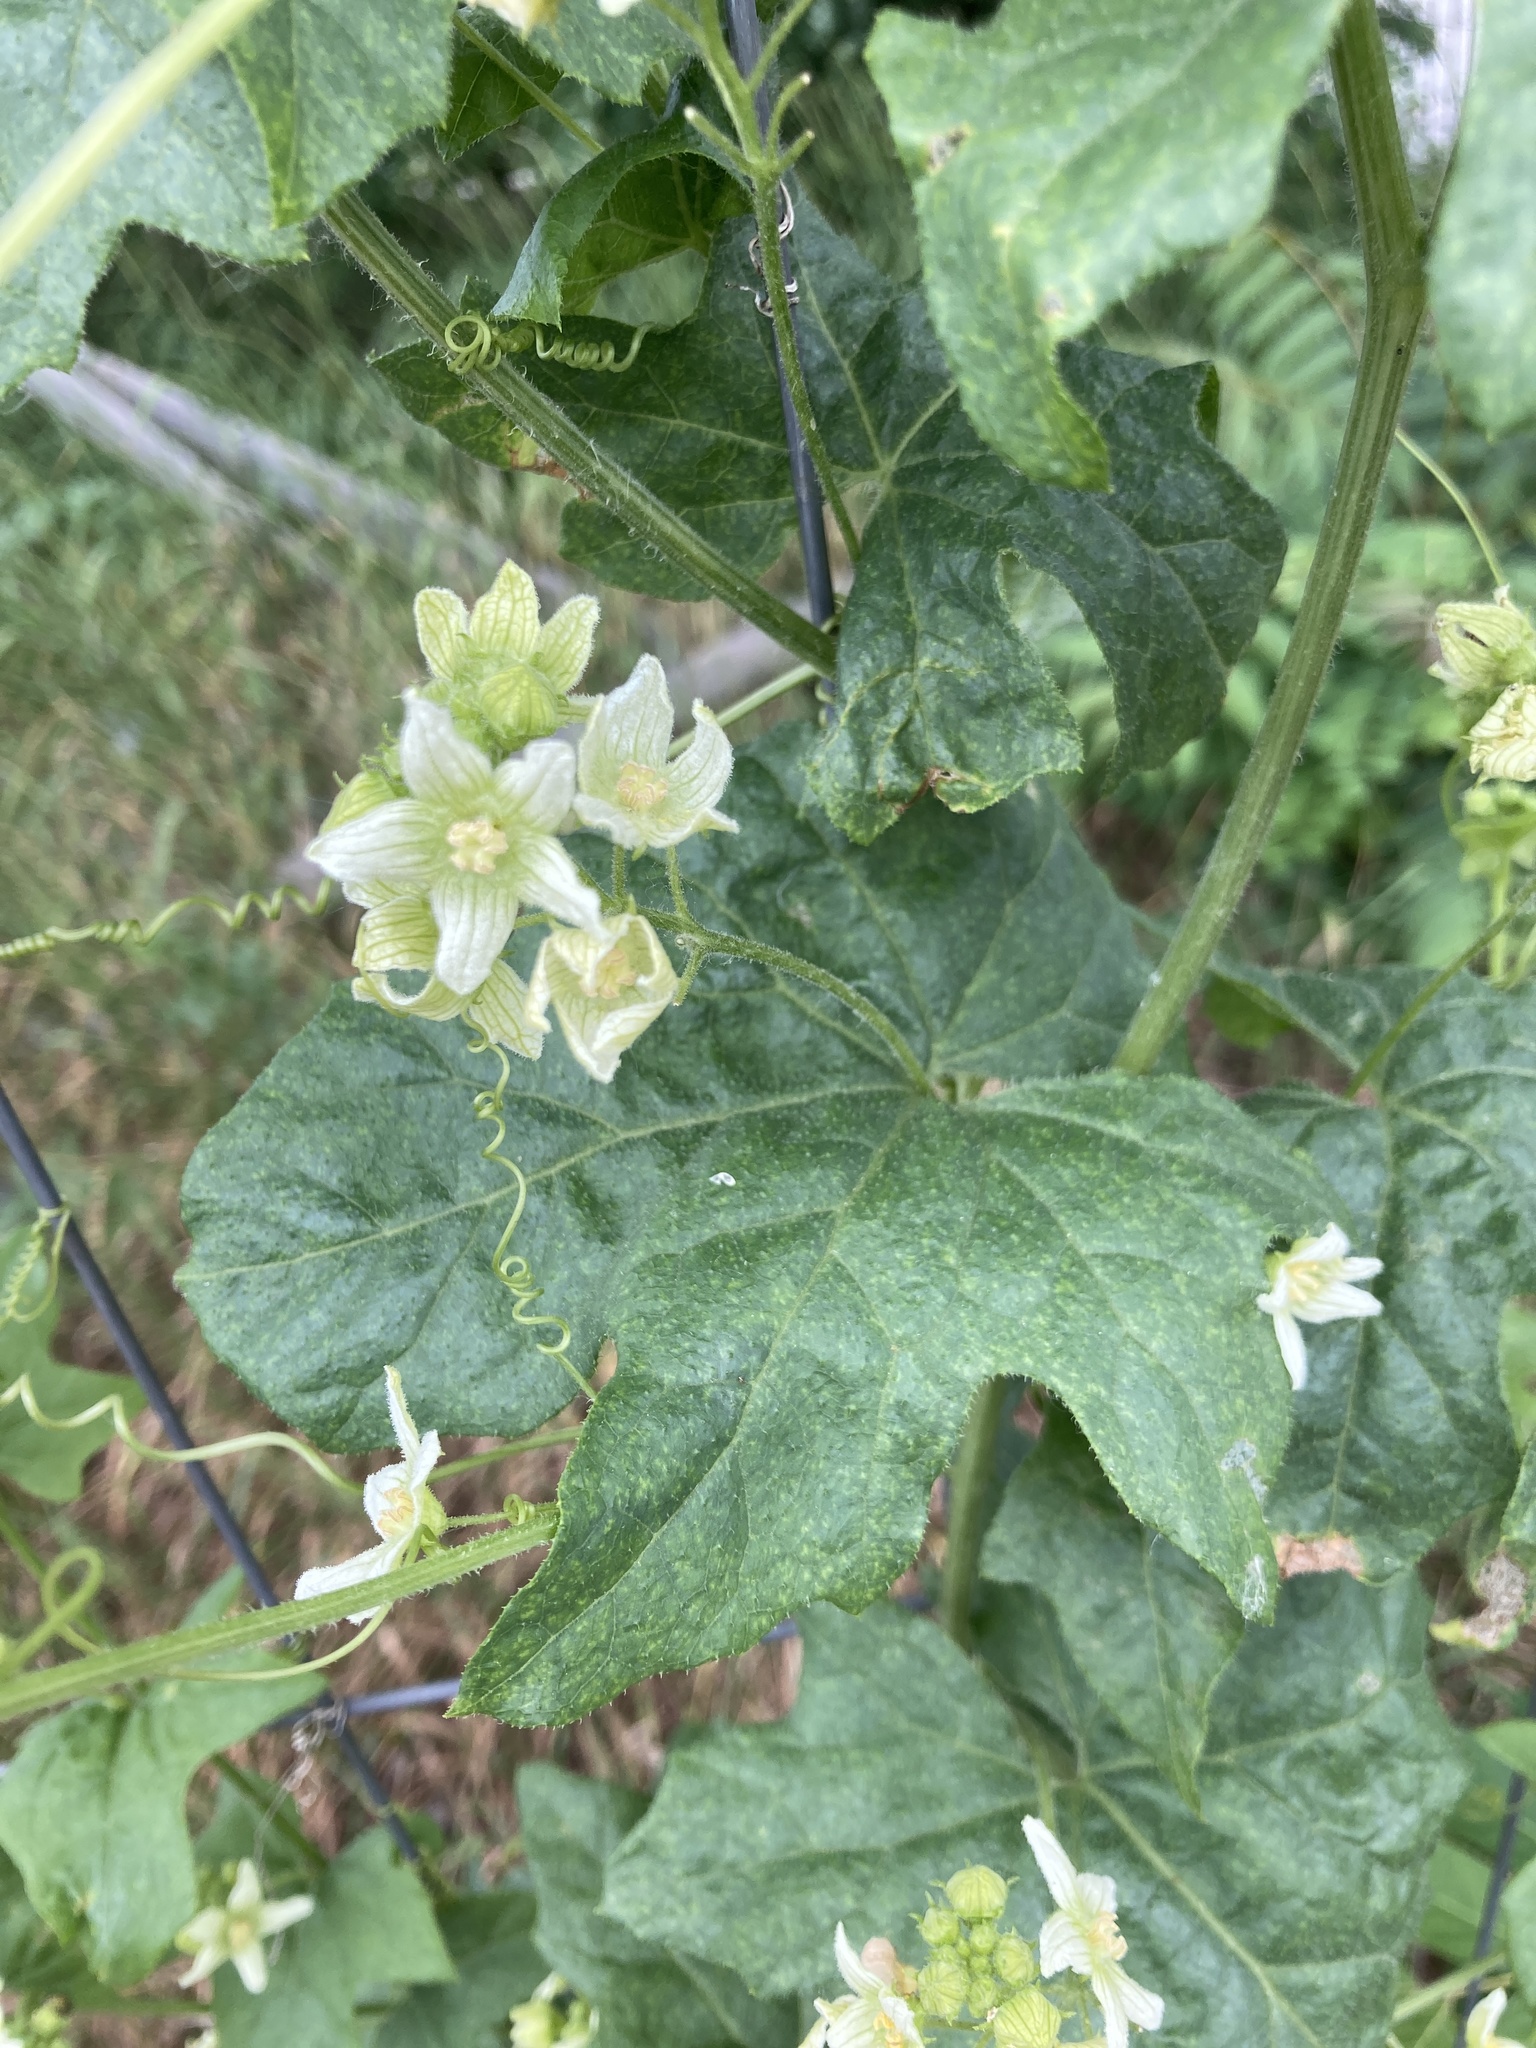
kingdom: Plantae
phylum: Tracheophyta
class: Magnoliopsida
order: Cucurbitales
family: Cucurbitaceae
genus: Bryonia
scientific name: Bryonia dioica
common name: White bryony
